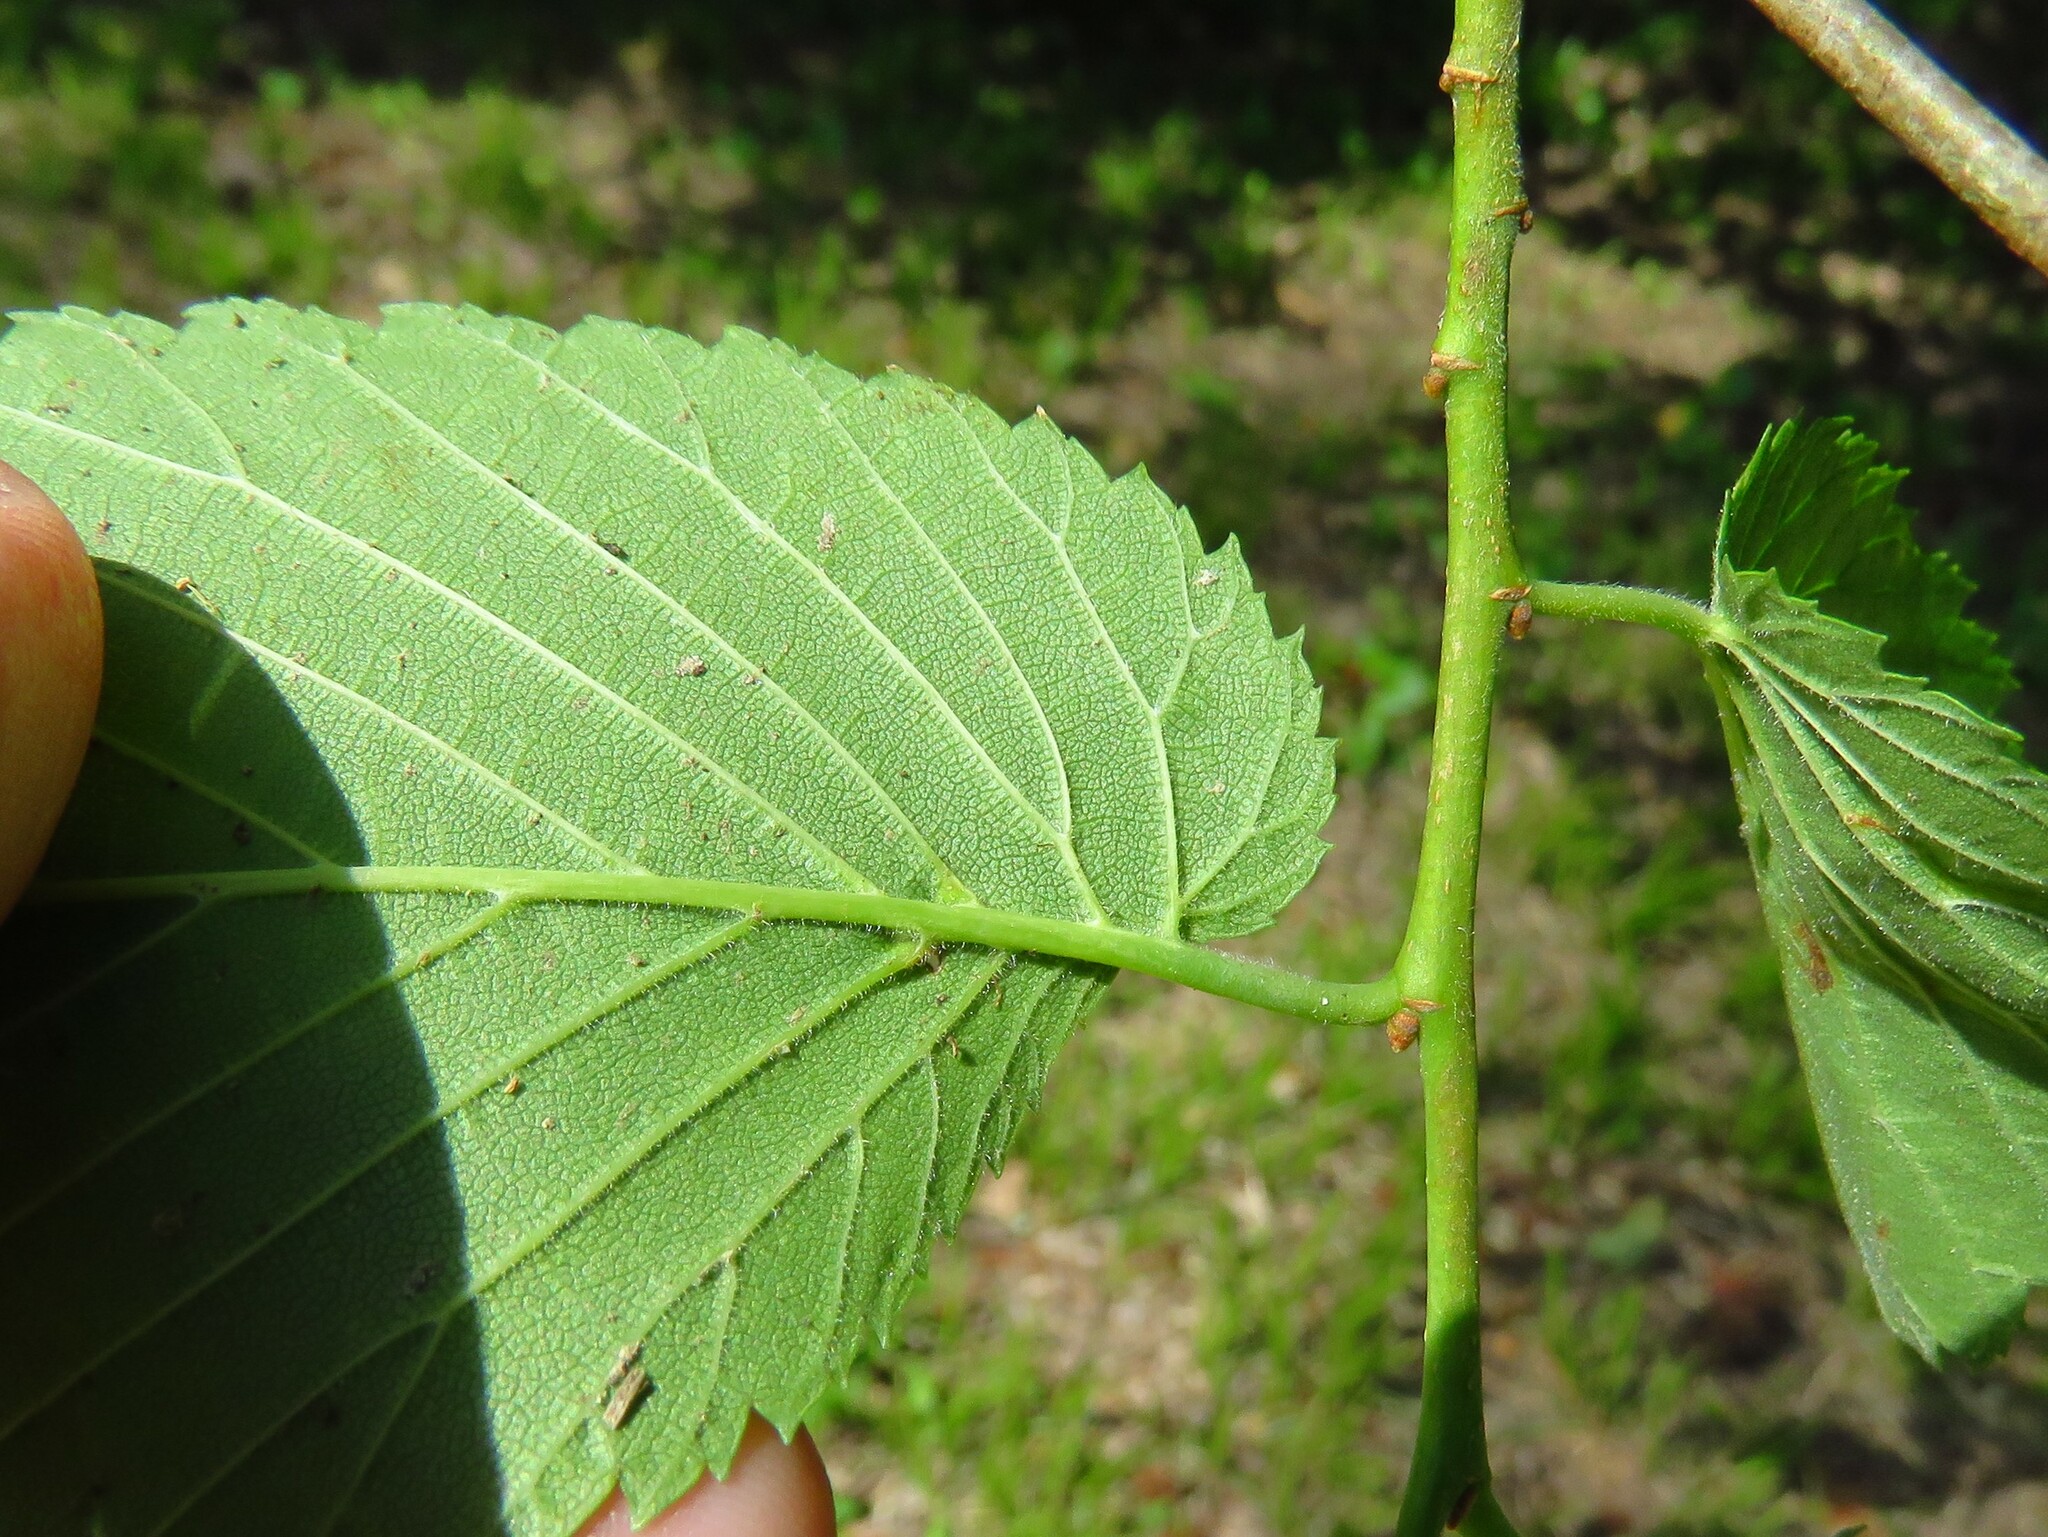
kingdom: Animalia
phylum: Arthropoda
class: Arachnida
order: Trombidiformes
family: Eriophyidae
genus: Aceria
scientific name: Aceria
